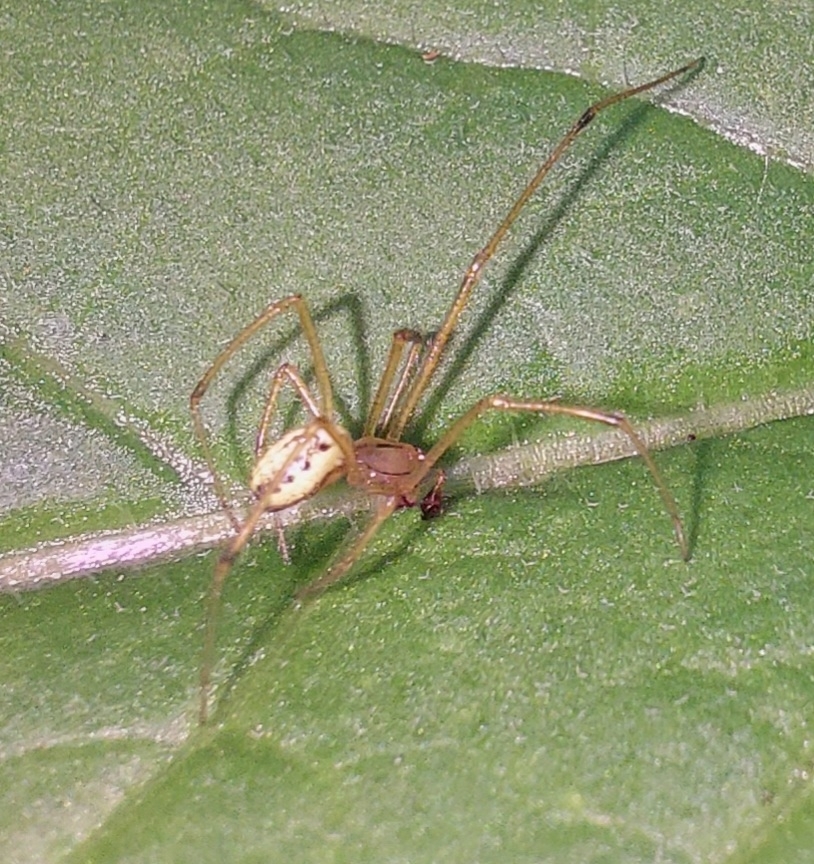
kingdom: Animalia
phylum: Arthropoda
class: Arachnida
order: Araneae
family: Theridiidae
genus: Enoplognatha
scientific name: Enoplognatha ovata
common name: Common candy-striped spider
